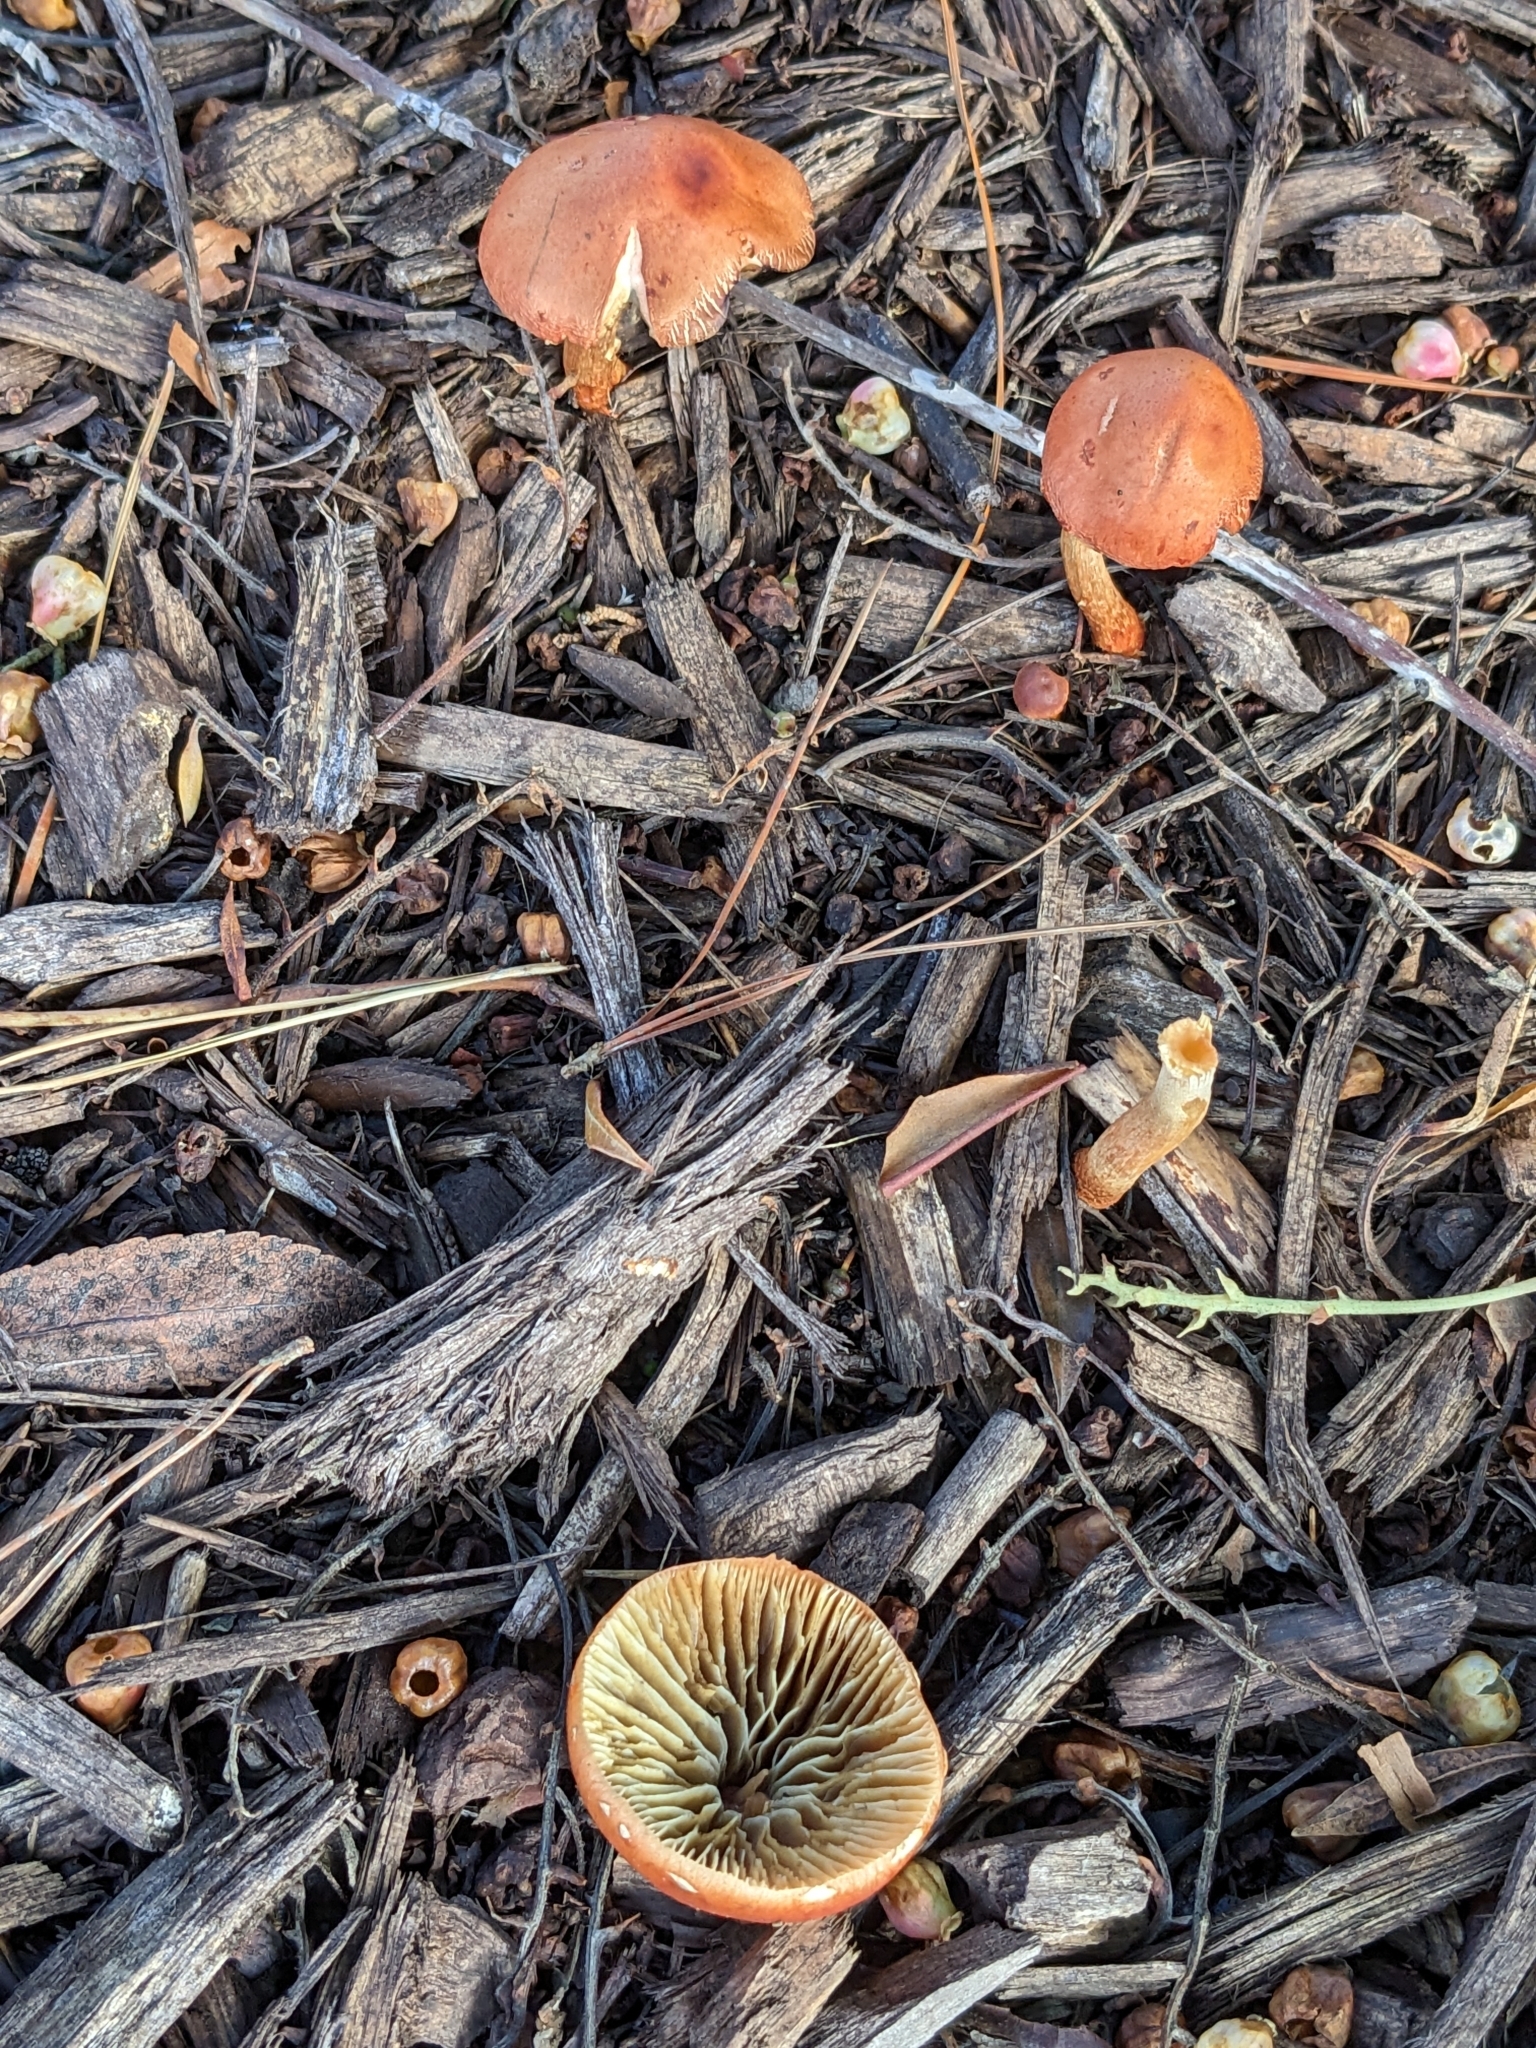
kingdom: Fungi
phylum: Basidiomycota
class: Agaricomycetes
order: Agaricales
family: Strophariaceae
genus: Leratiomyces
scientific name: Leratiomyces ceres
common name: Redlead roundhead
